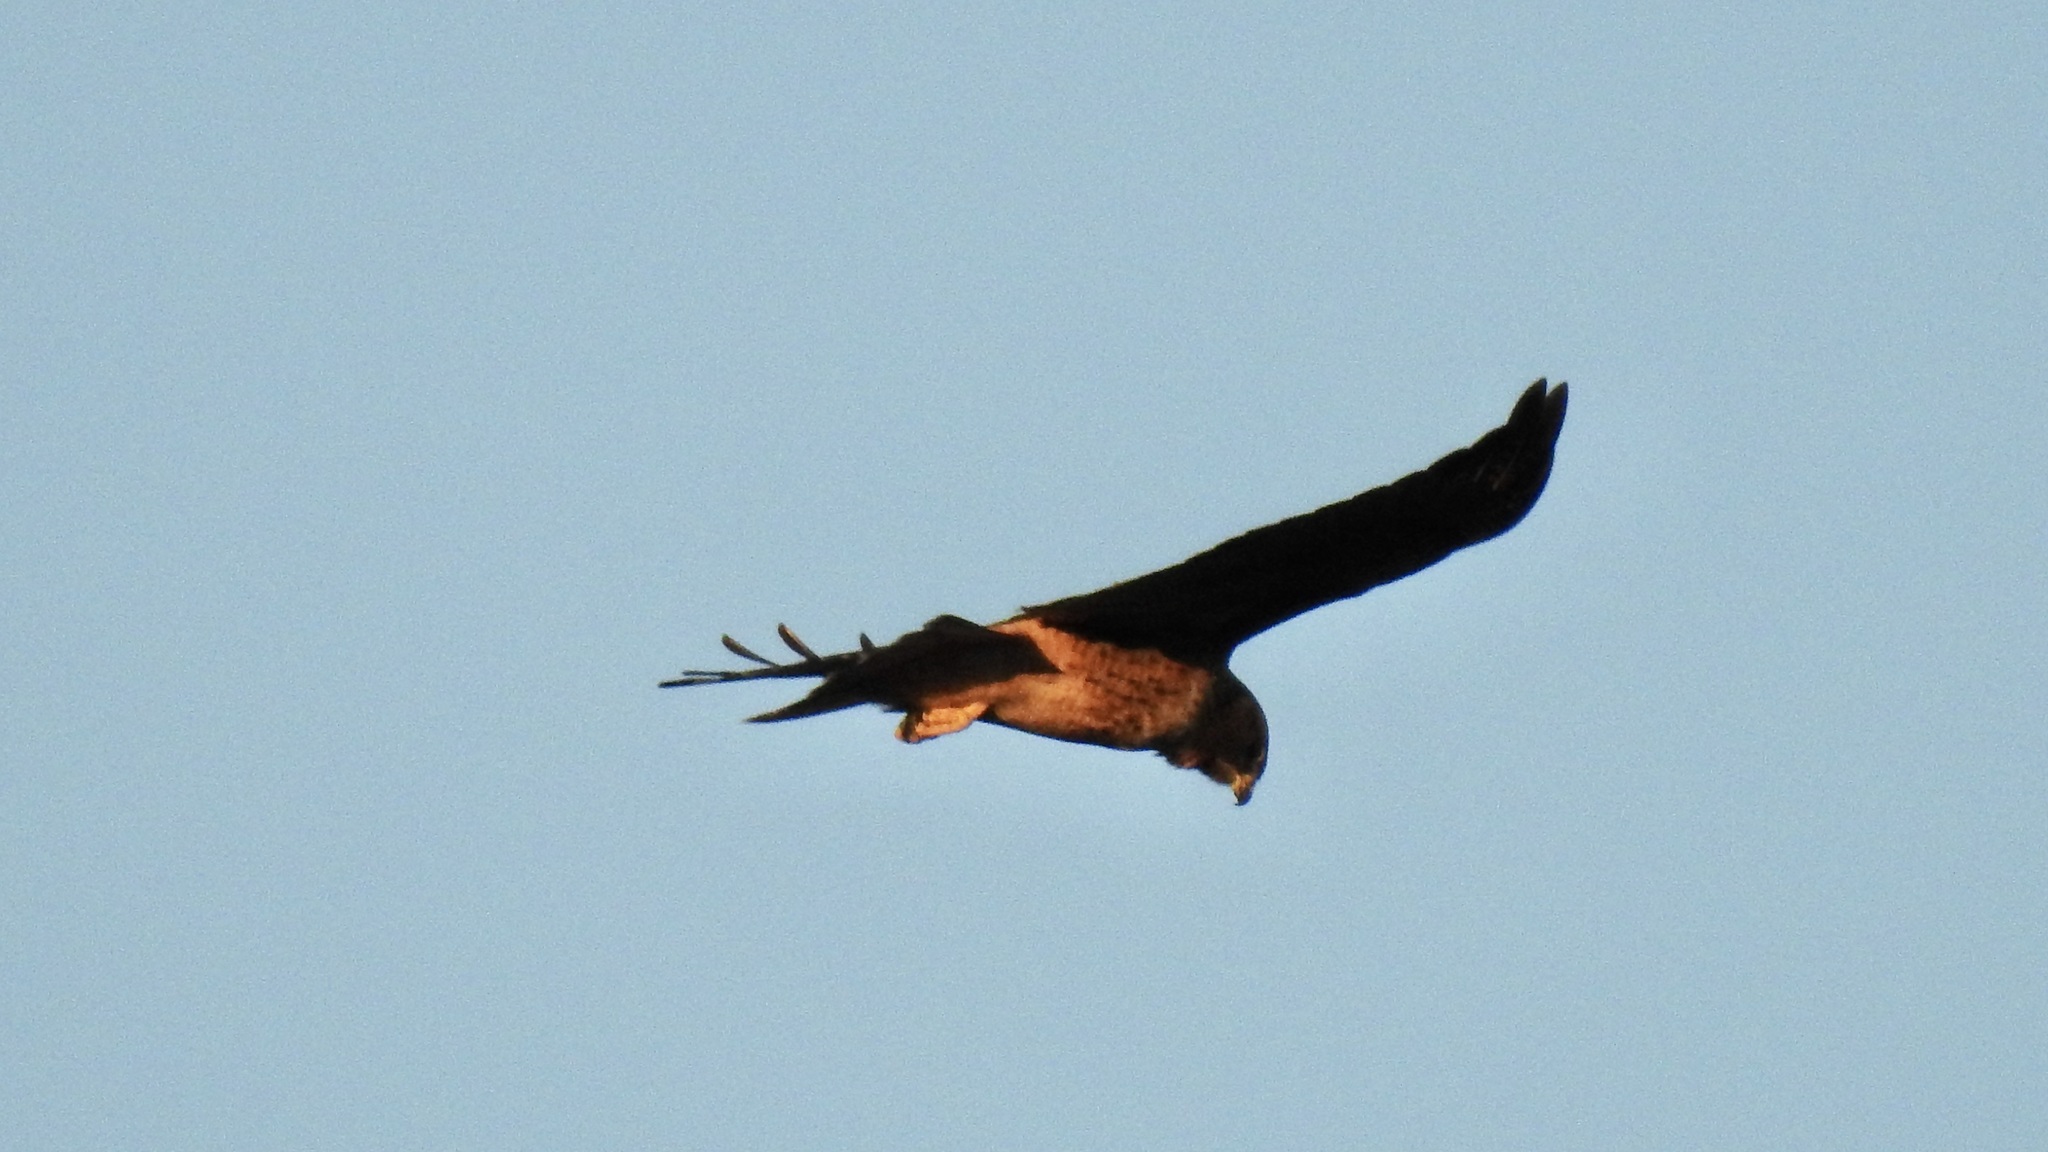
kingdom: Animalia
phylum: Chordata
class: Aves
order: Accipitriformes
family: Accipitridae
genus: Circus
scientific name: Circus cyaneus
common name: Hen harrier
